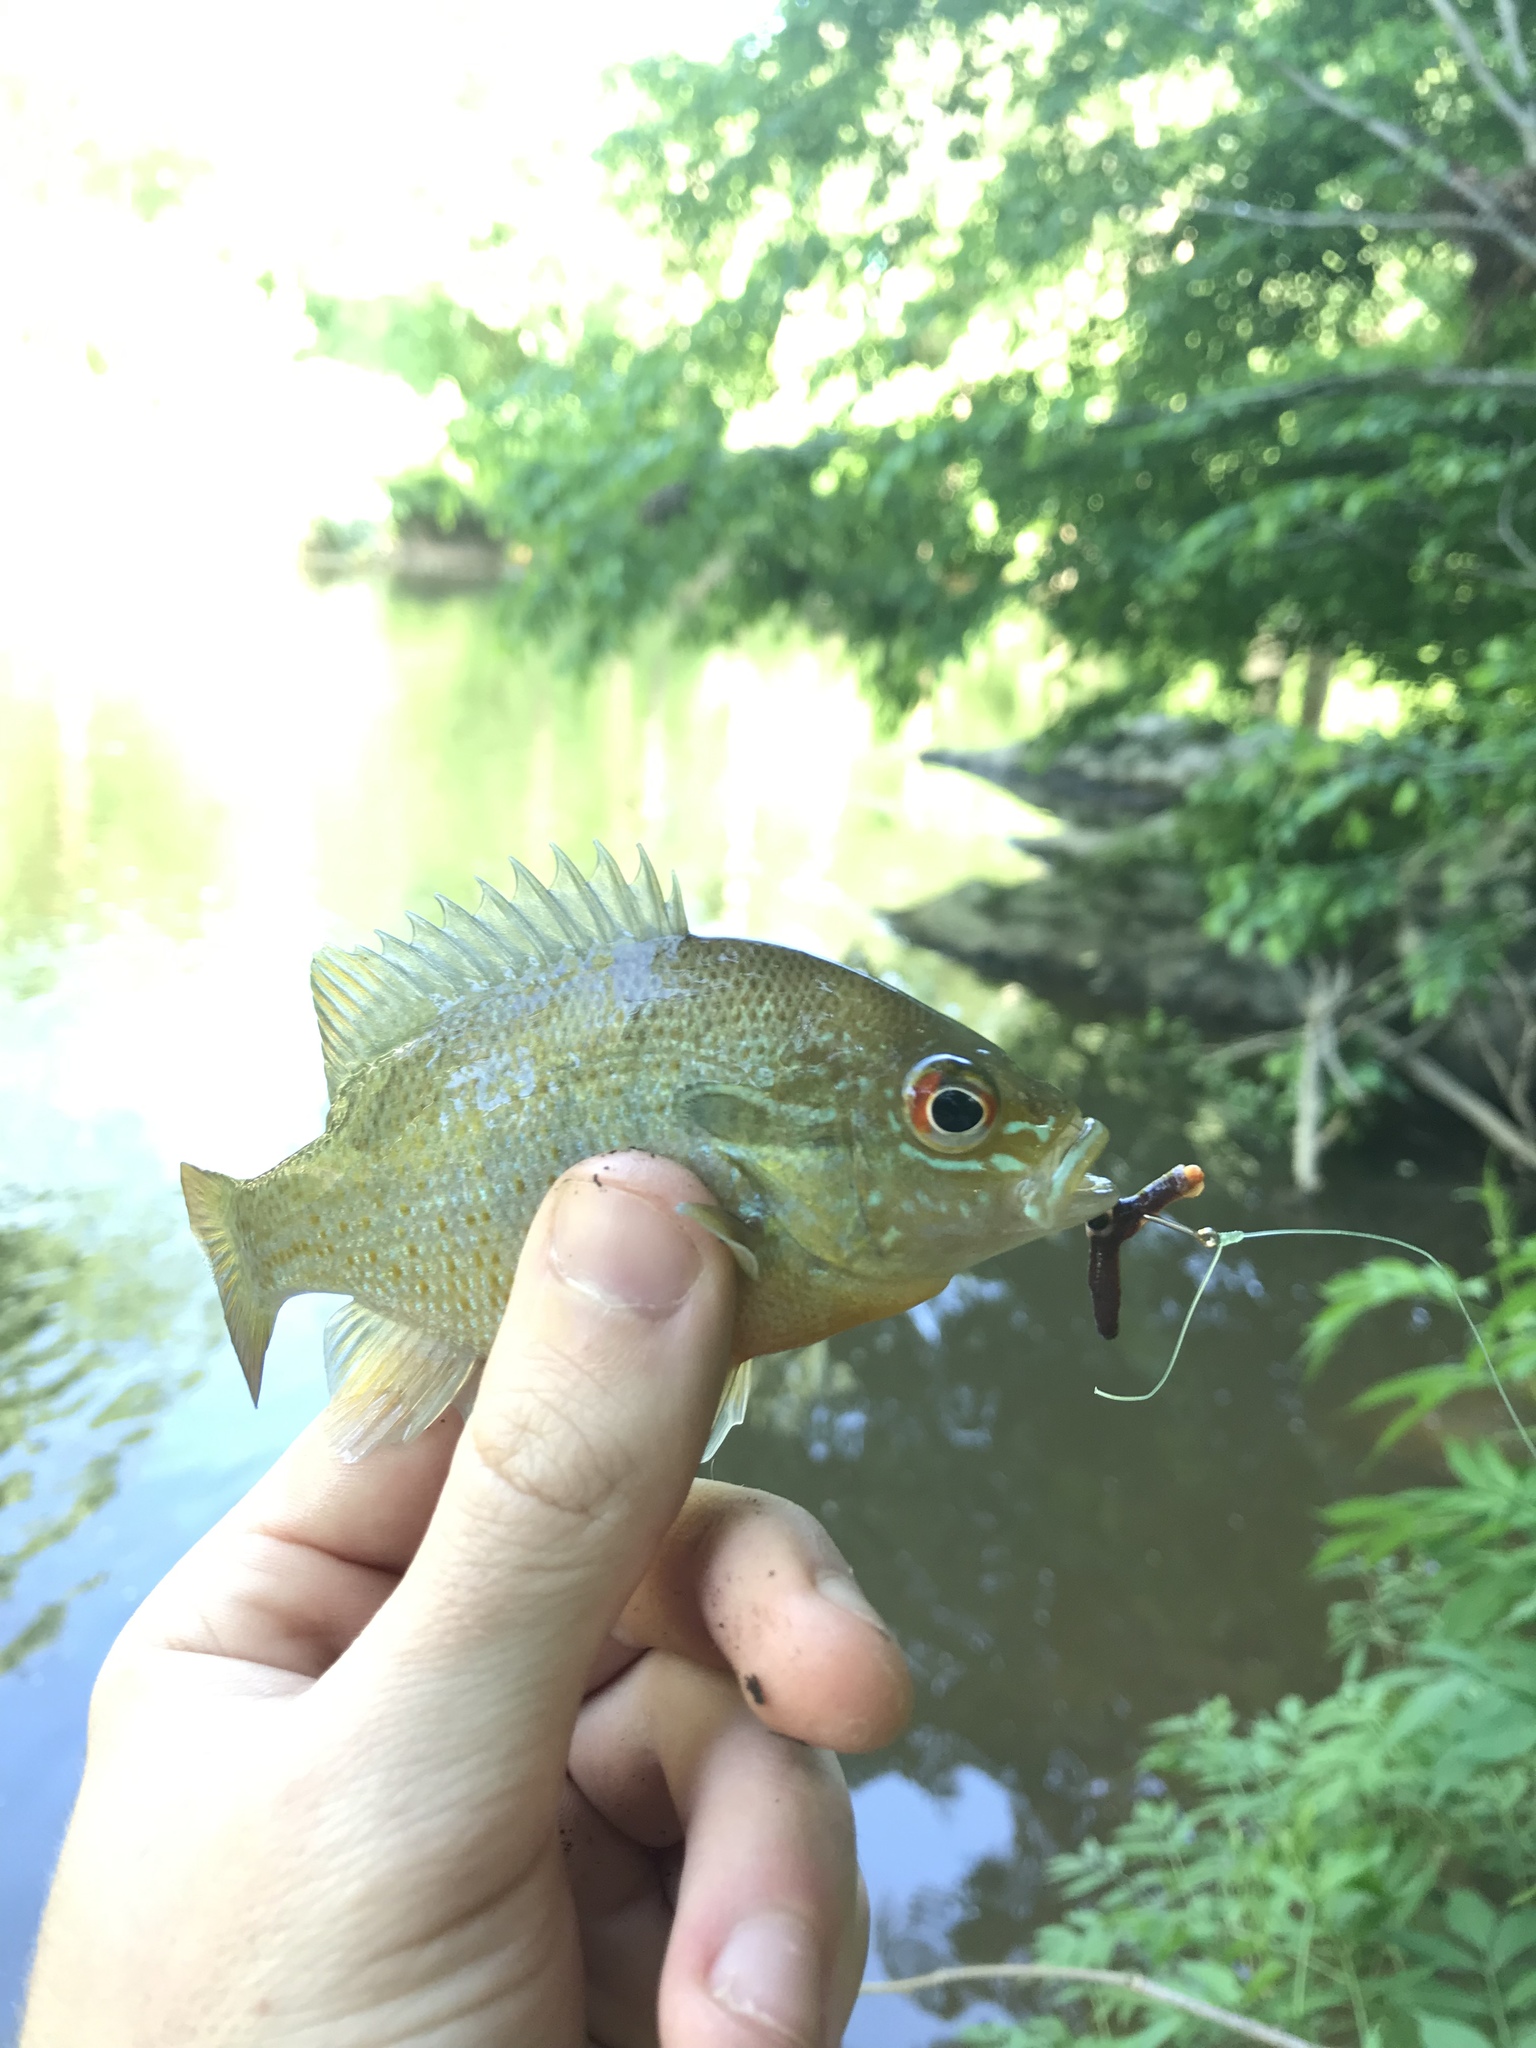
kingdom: Animalia
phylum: Chordata
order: Perciformes
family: Centrarchidae
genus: Lepomis
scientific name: Lepomis auritus
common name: Redbreast sunfish
